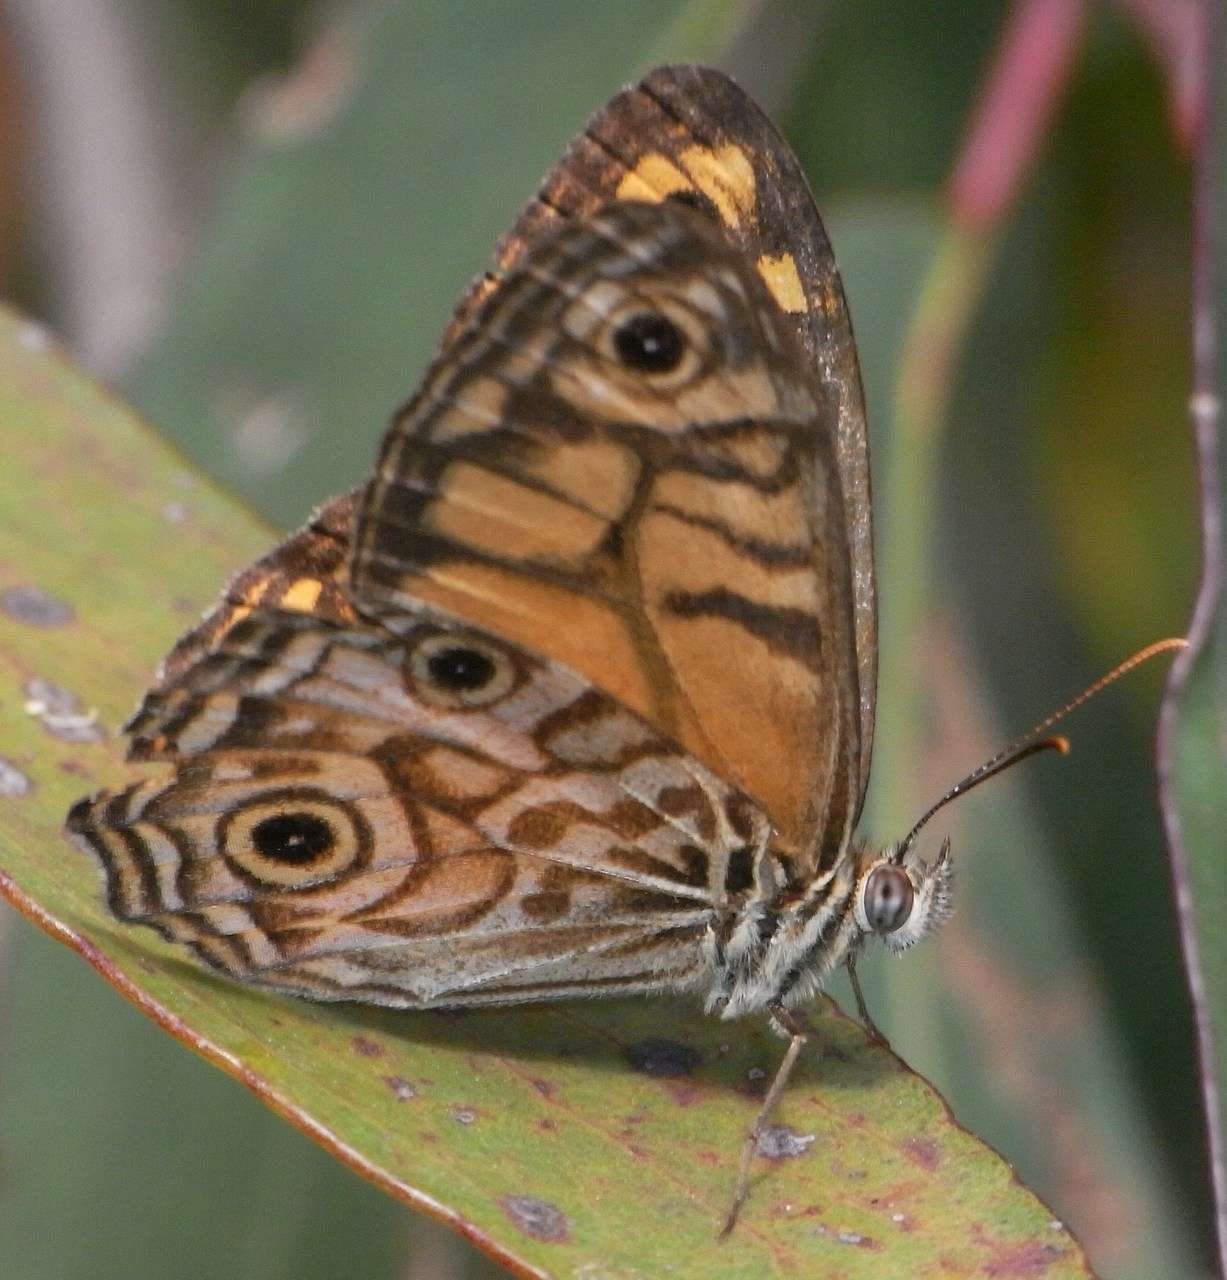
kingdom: Animalia
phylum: Arthropoda
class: Insecta
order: Lepidoptera
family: Nymphalidae
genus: Geitoneura
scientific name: Geitoneura acantha
